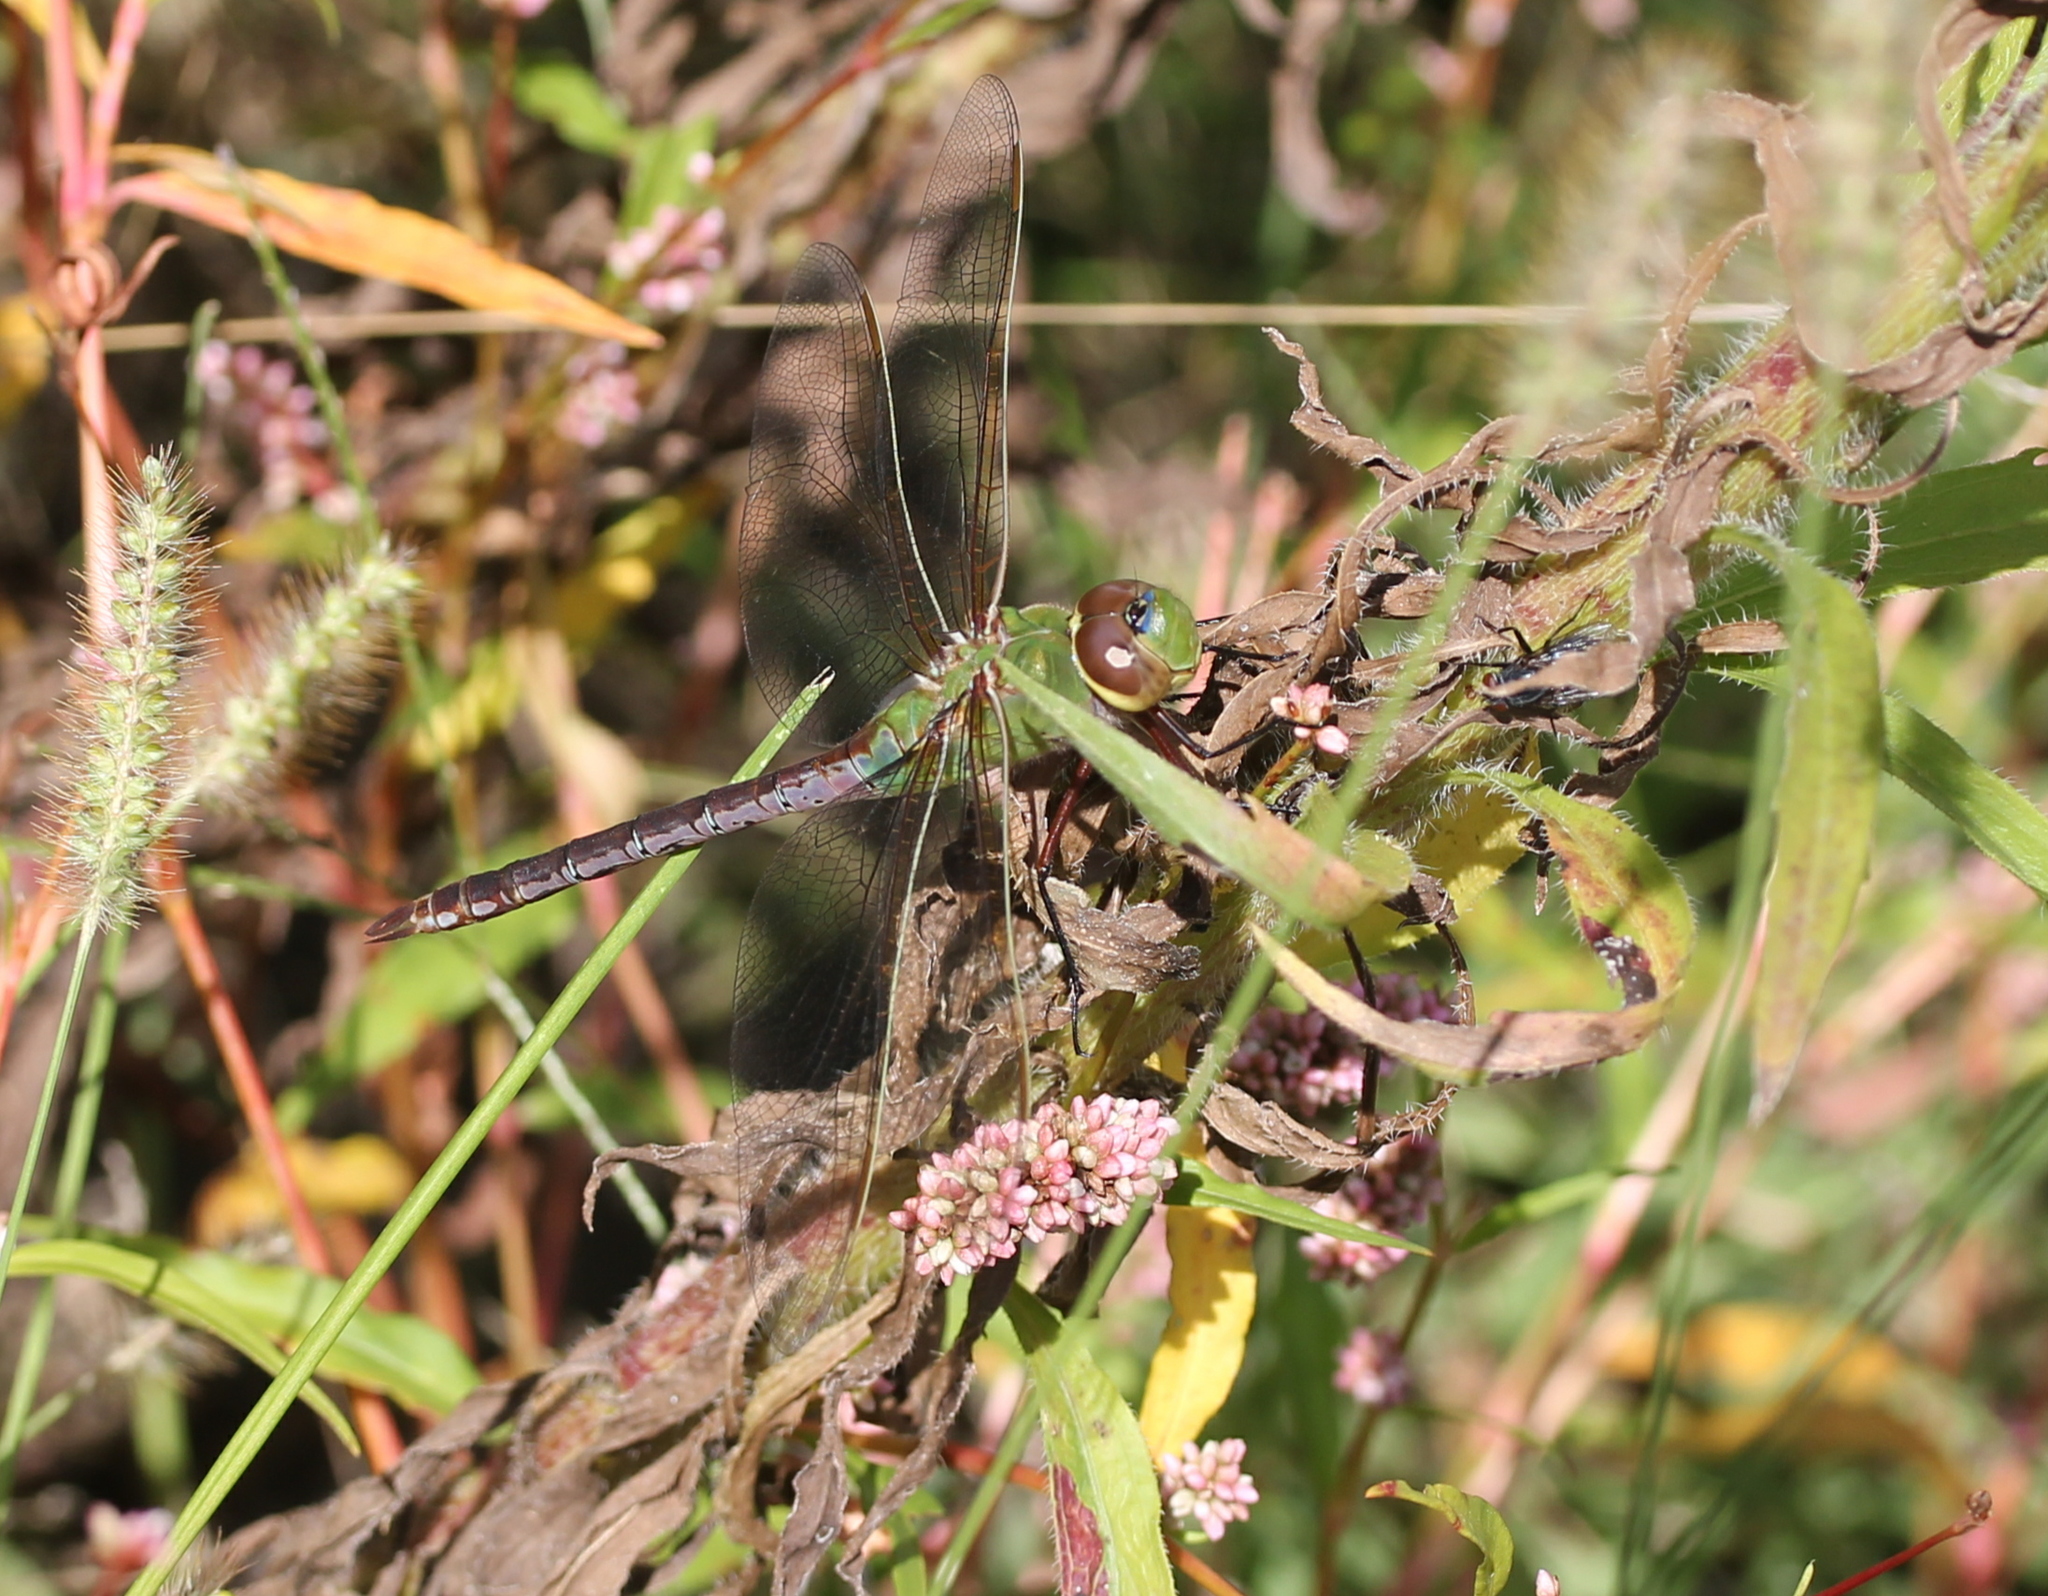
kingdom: Animalia
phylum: Arthropoda
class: Insecta
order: Odonata
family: Aeshnidae
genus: Anax
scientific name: Anax junius
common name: Common green darner
